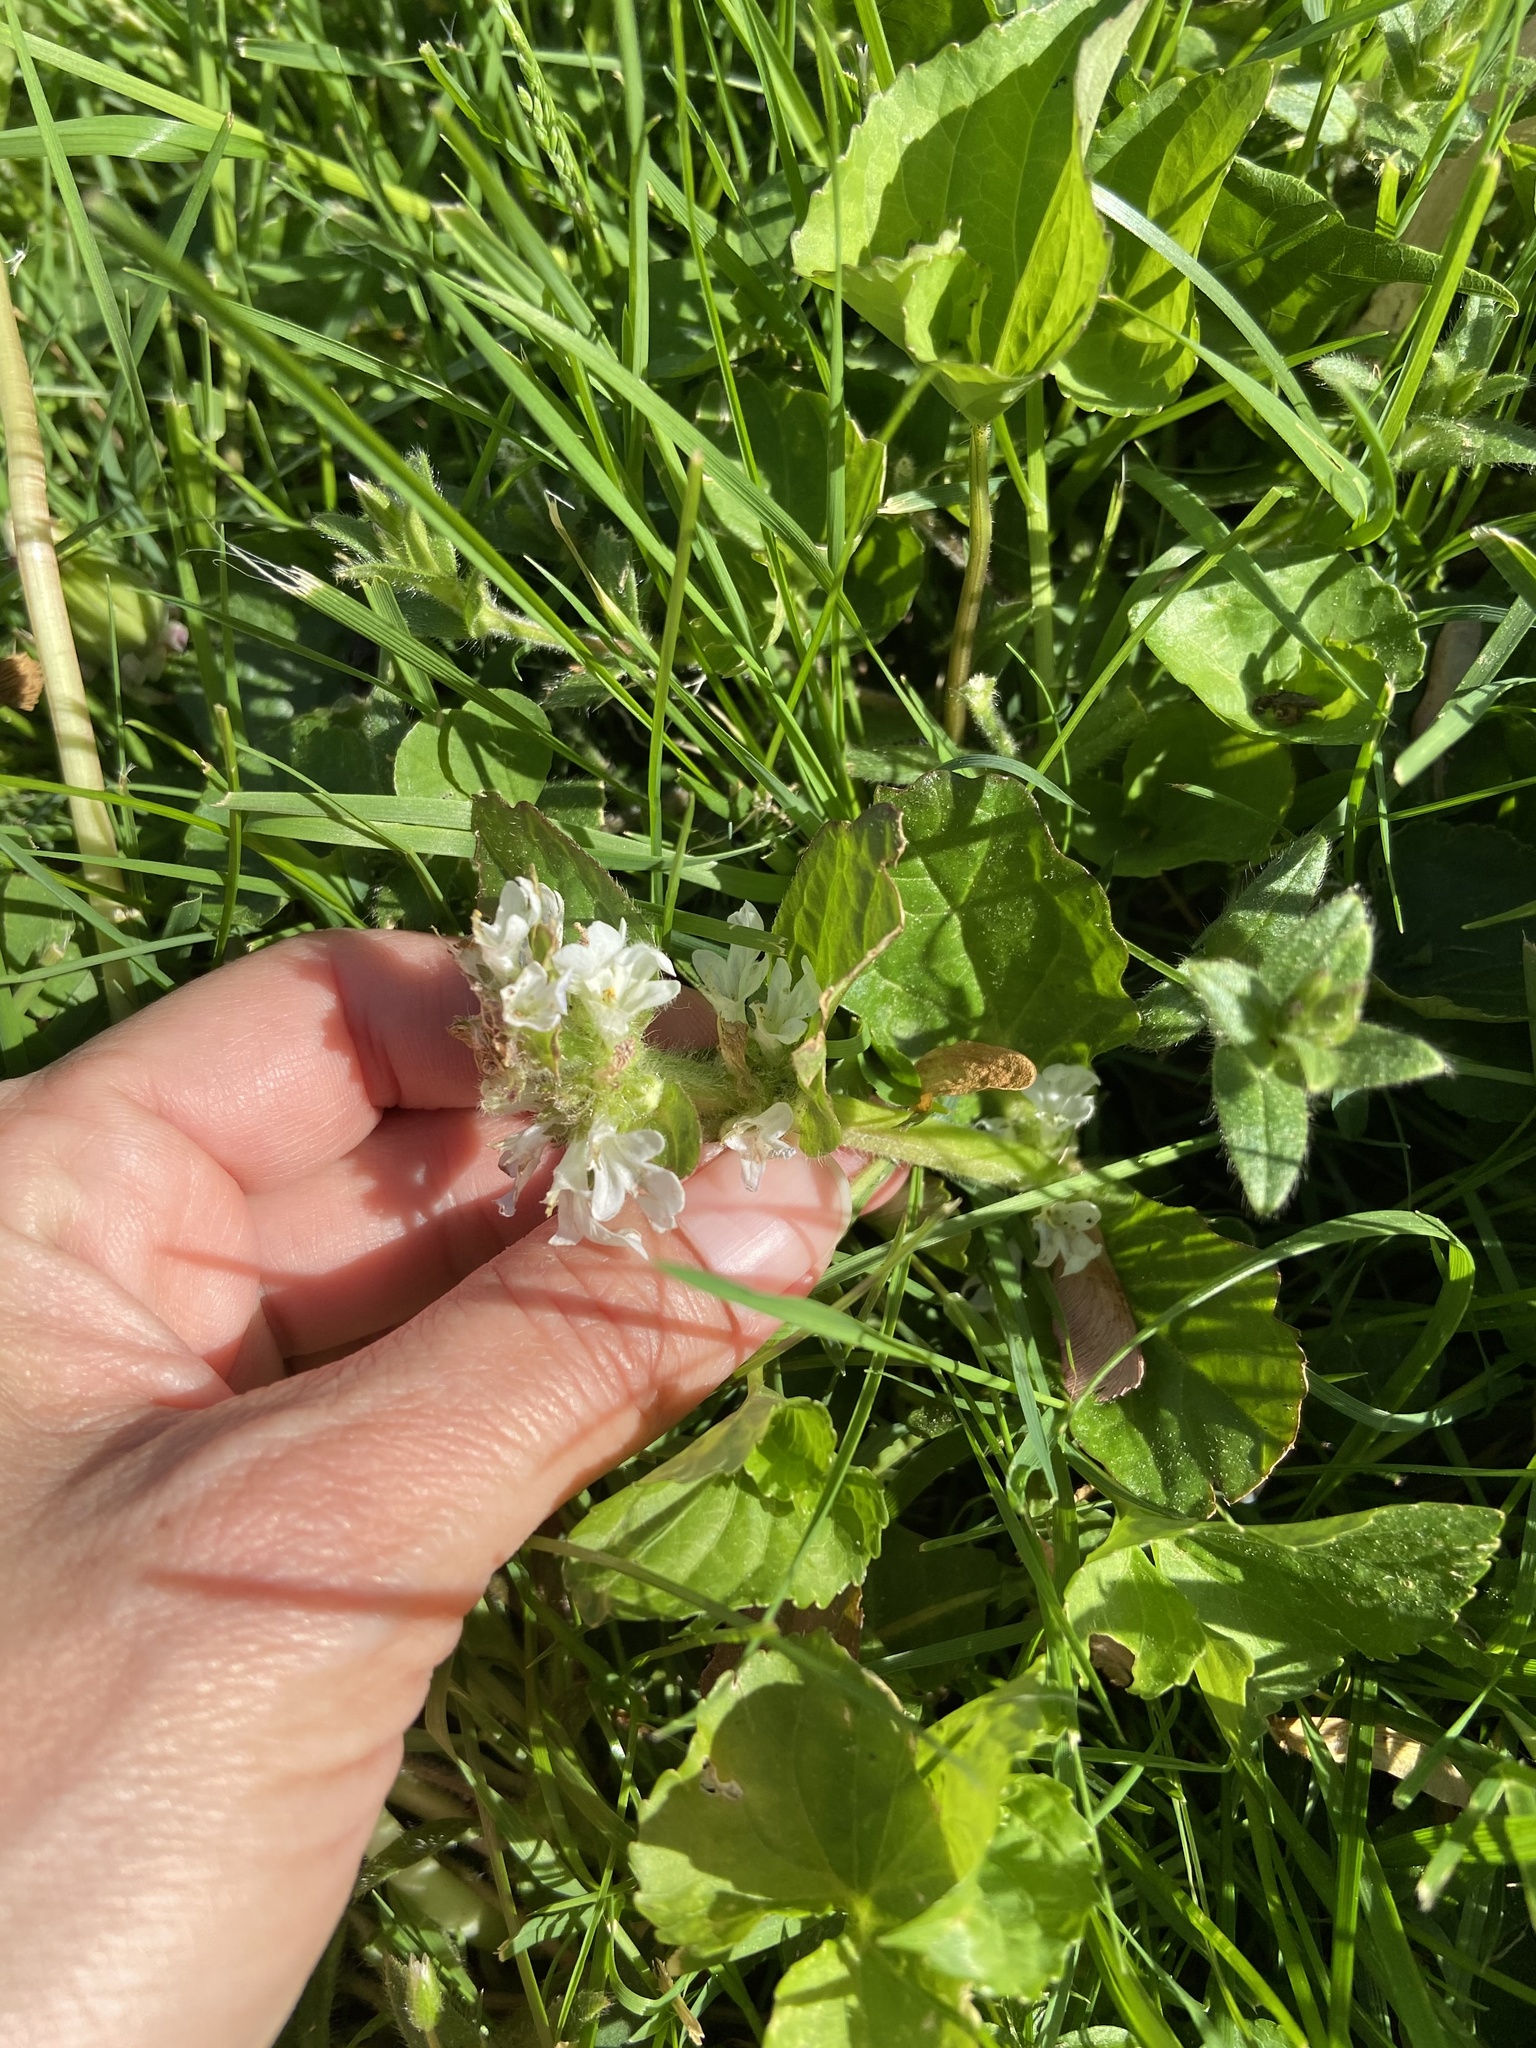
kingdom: Plantae
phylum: Tracheophyta
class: Magnoliopsida
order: Lamiales
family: Lamiaceae
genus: Ajuga
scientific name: Ajuga reptans
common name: Bugle
